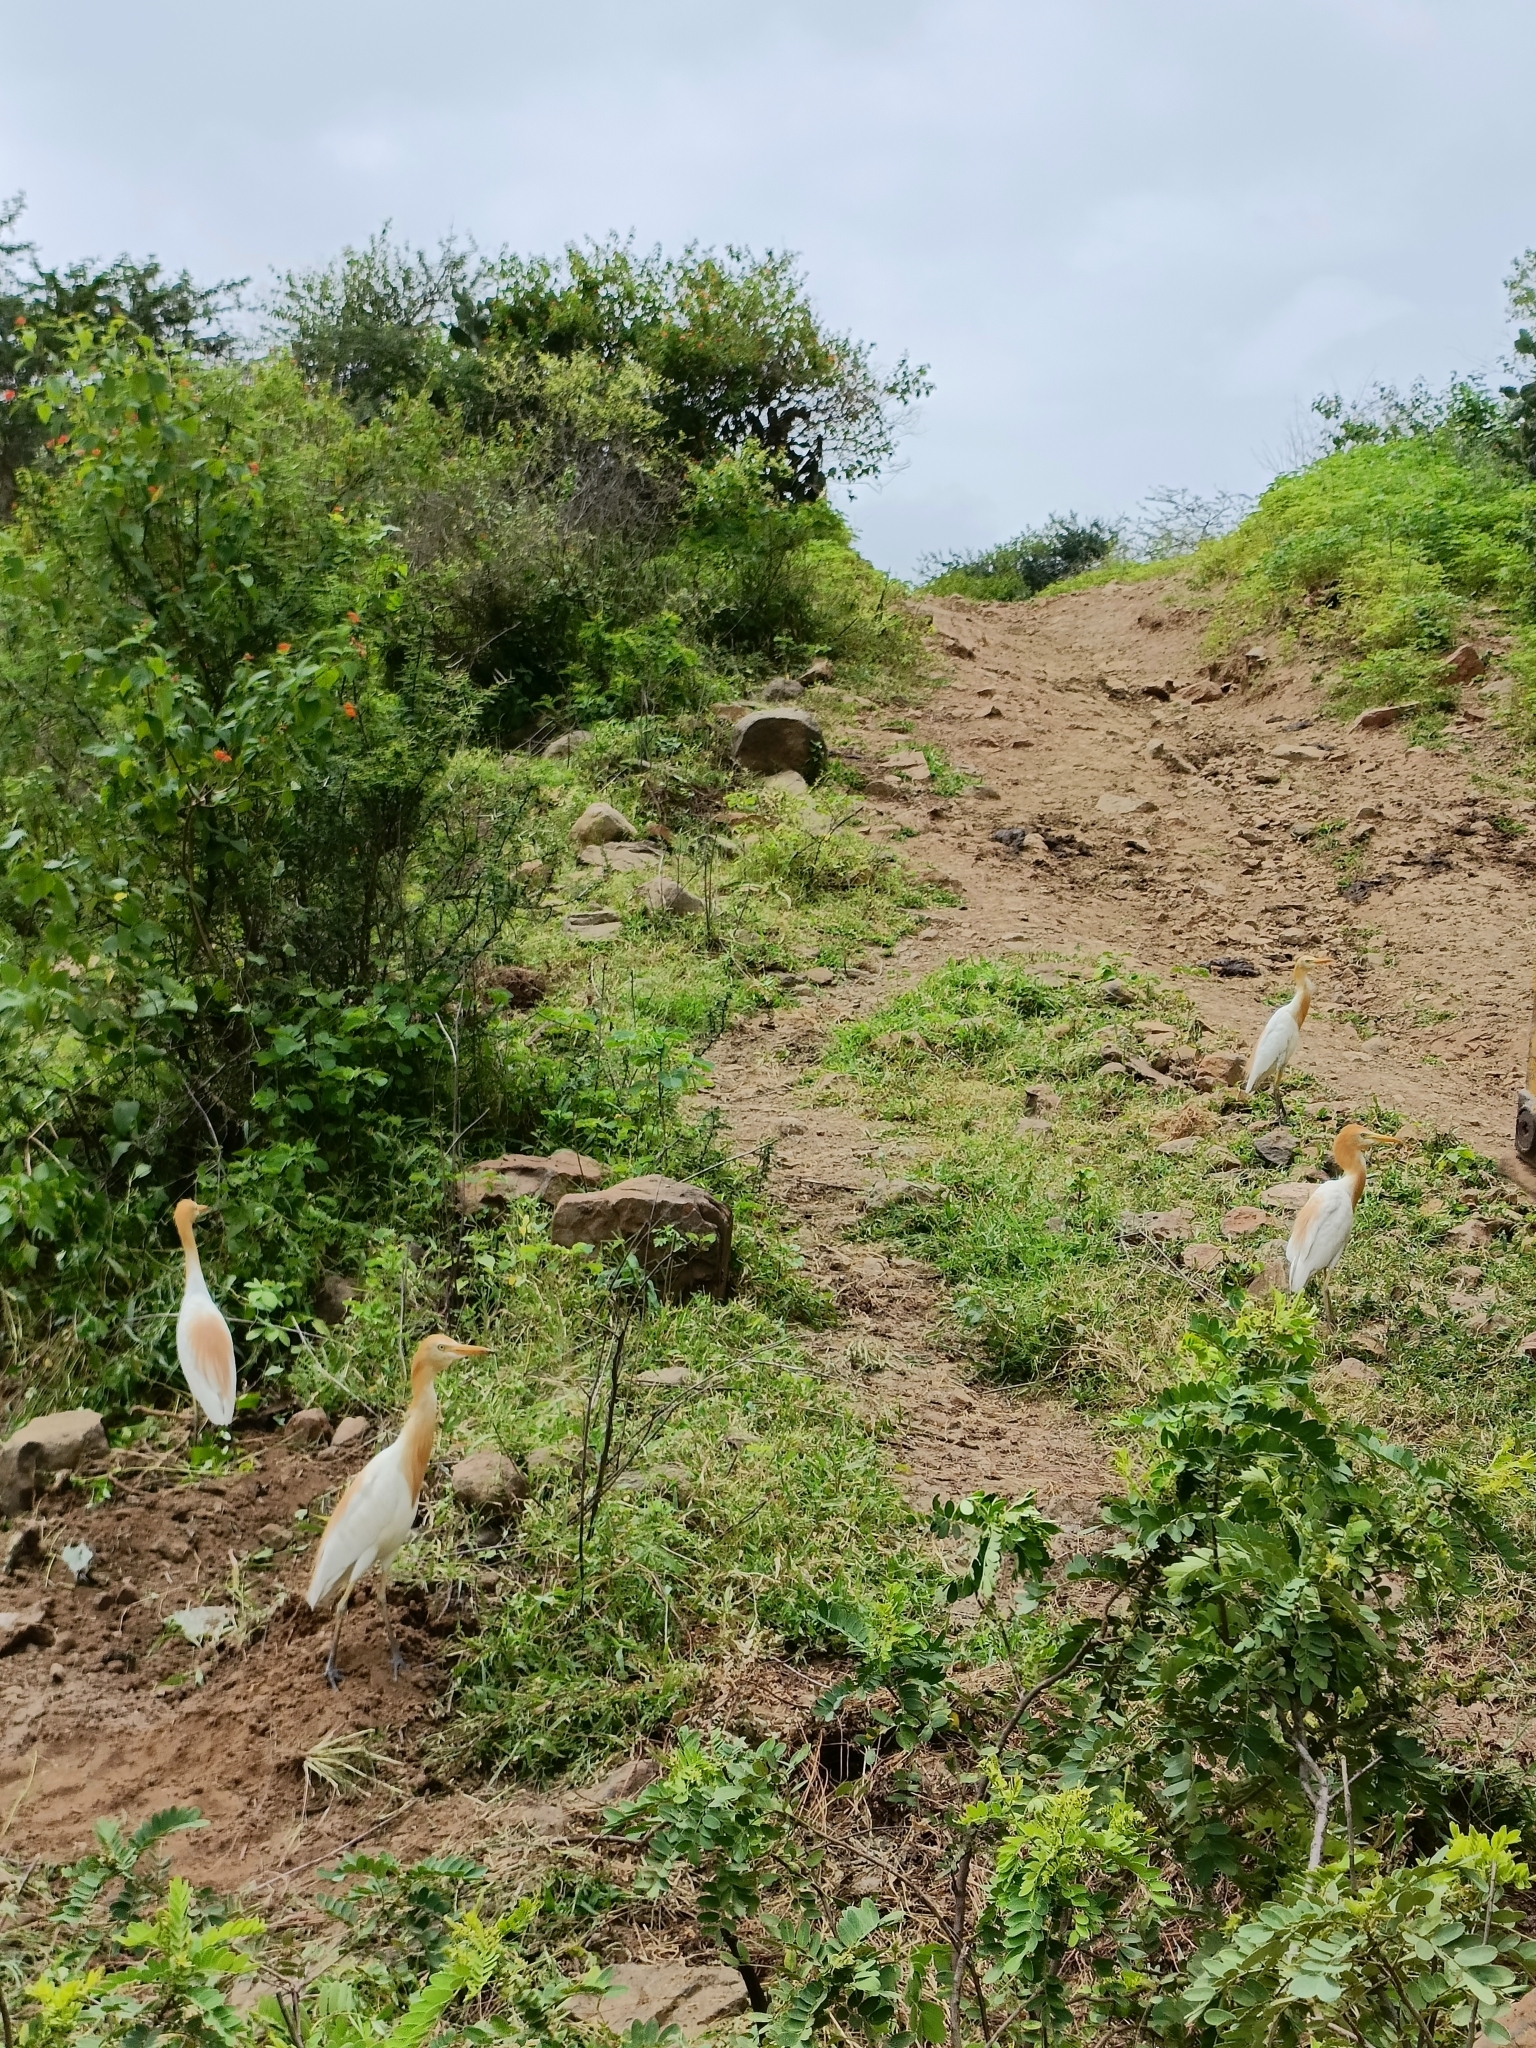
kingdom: Animalia
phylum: Chordata
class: Aves
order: Pelecaniformes
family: Ardeidae
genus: Bubulcus
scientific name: Bubulcus coromandus
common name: Eastern cattle egret
